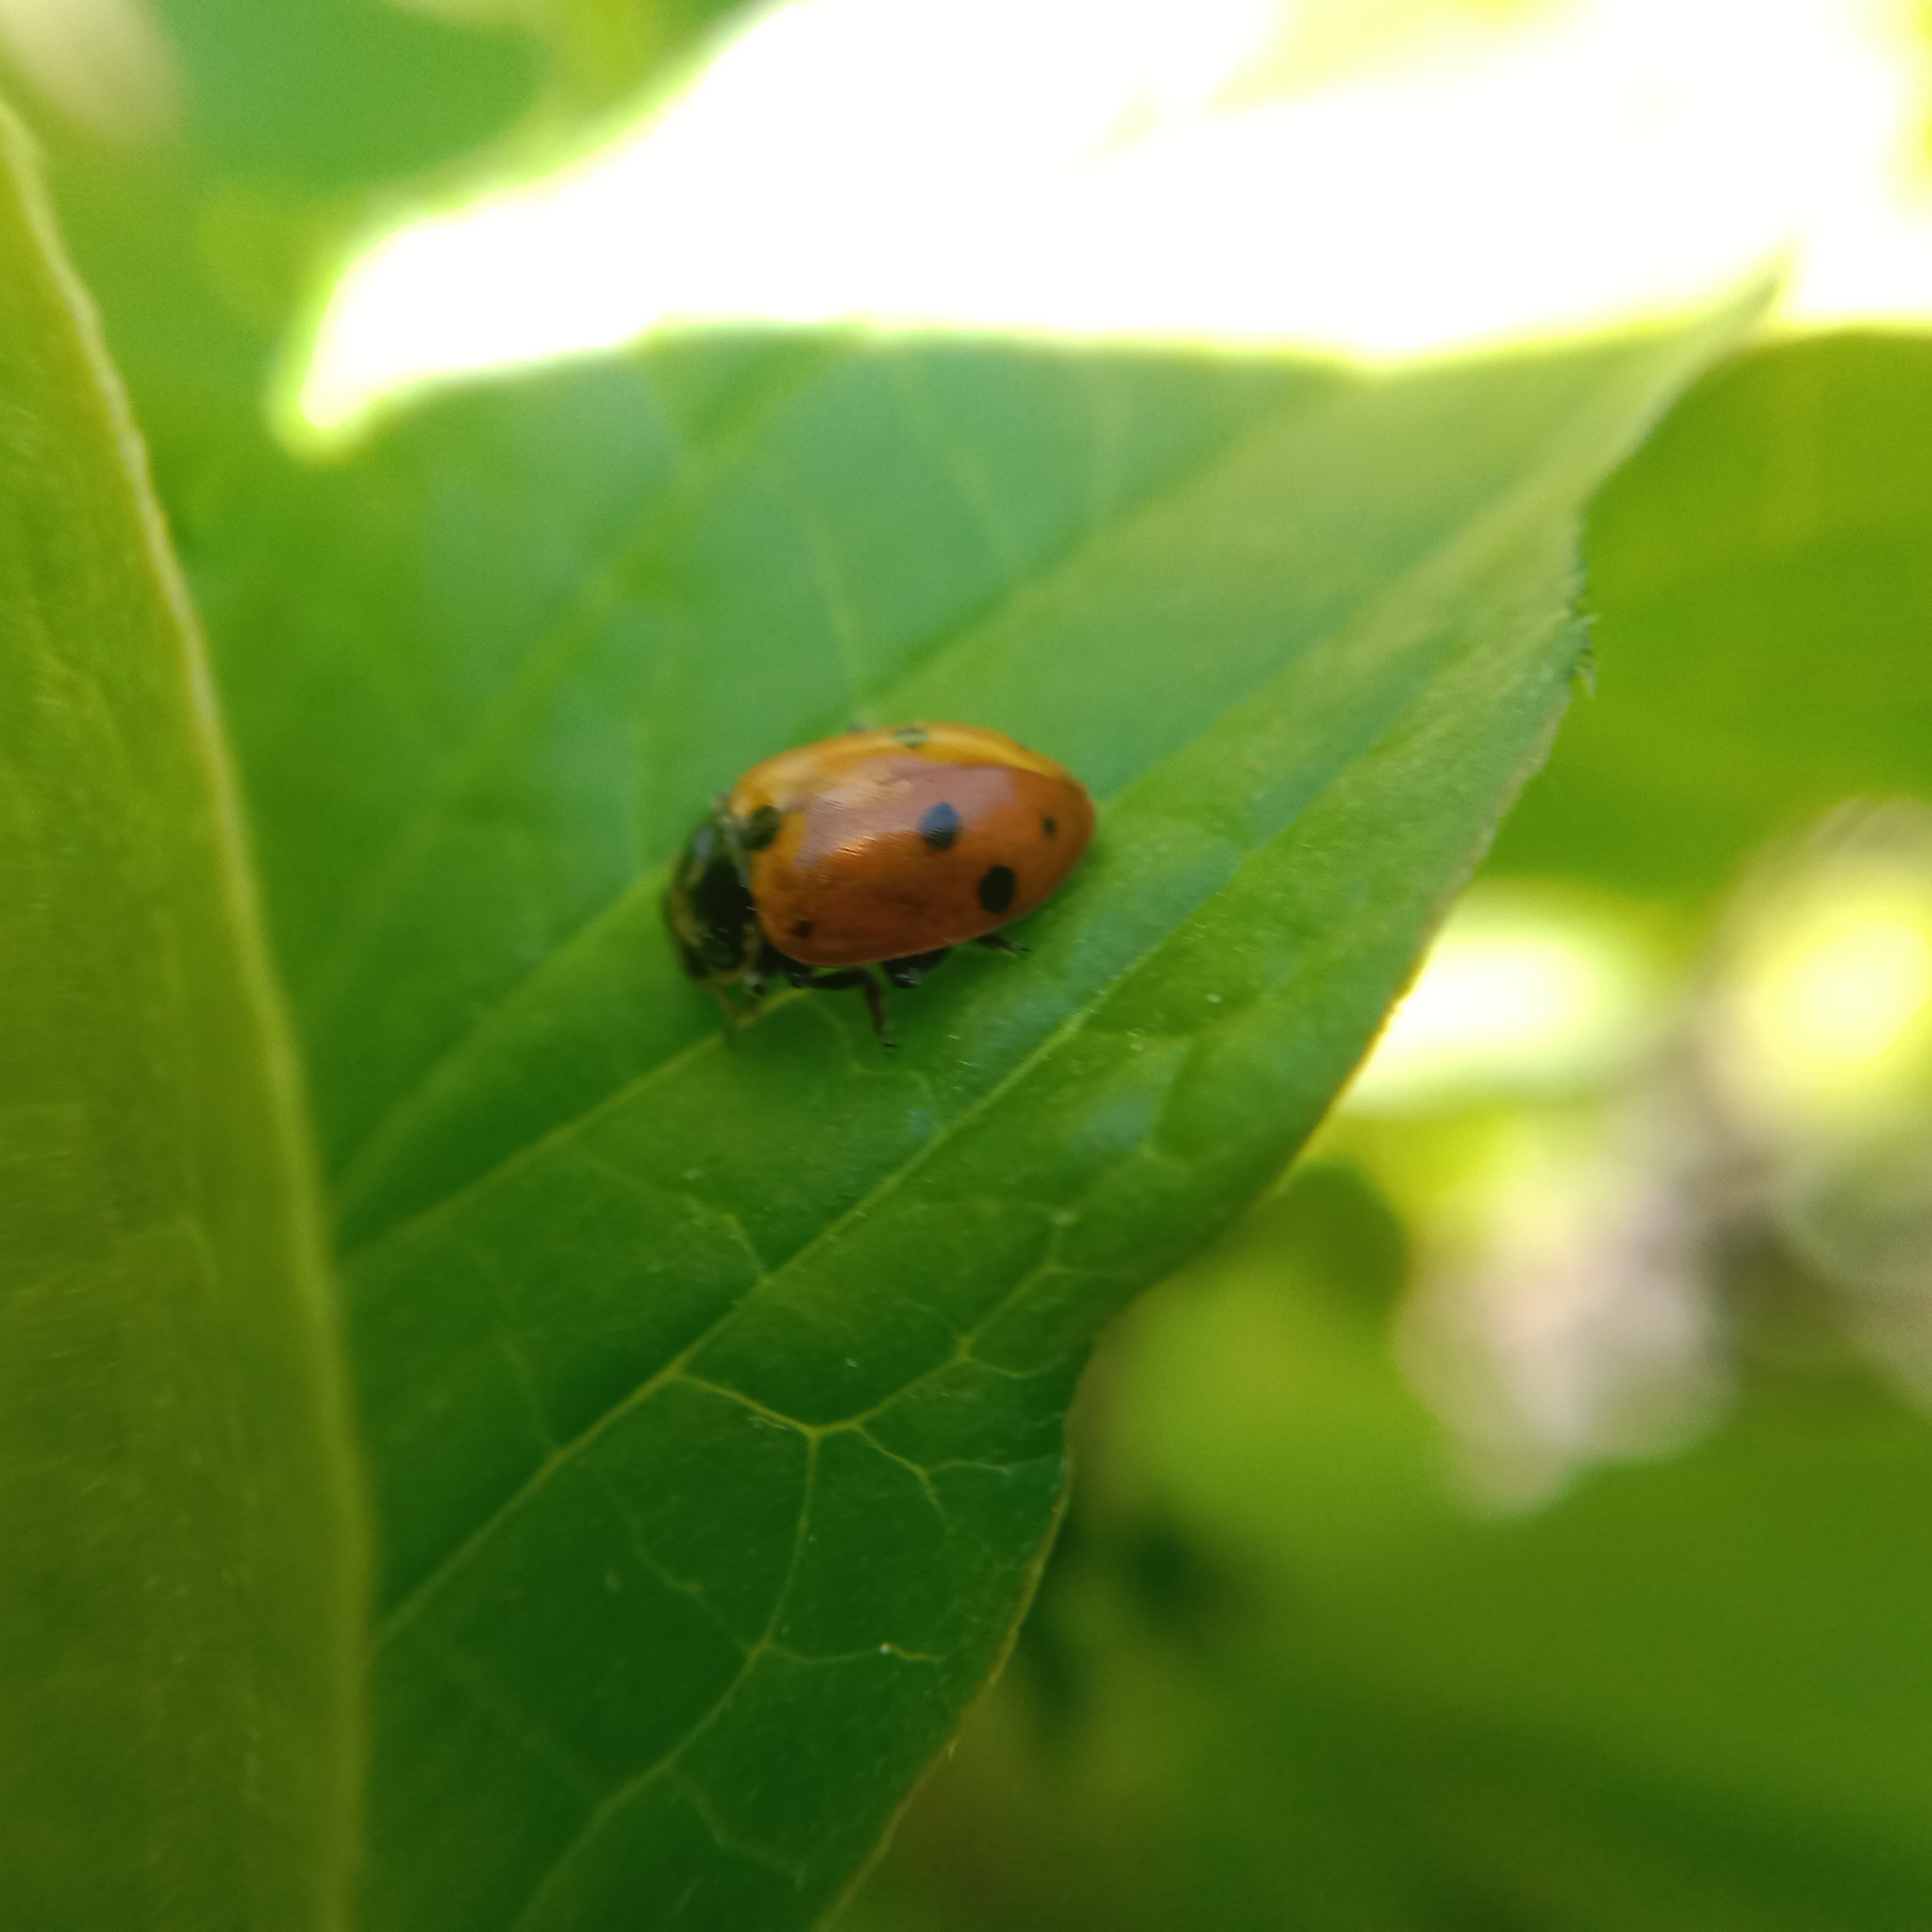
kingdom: Animalia
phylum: Arthropoda
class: Insecta
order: Coleoptera
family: Coccinellidae
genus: Hippodamia
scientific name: Hippodamia variegata
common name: Ladybird beetle
